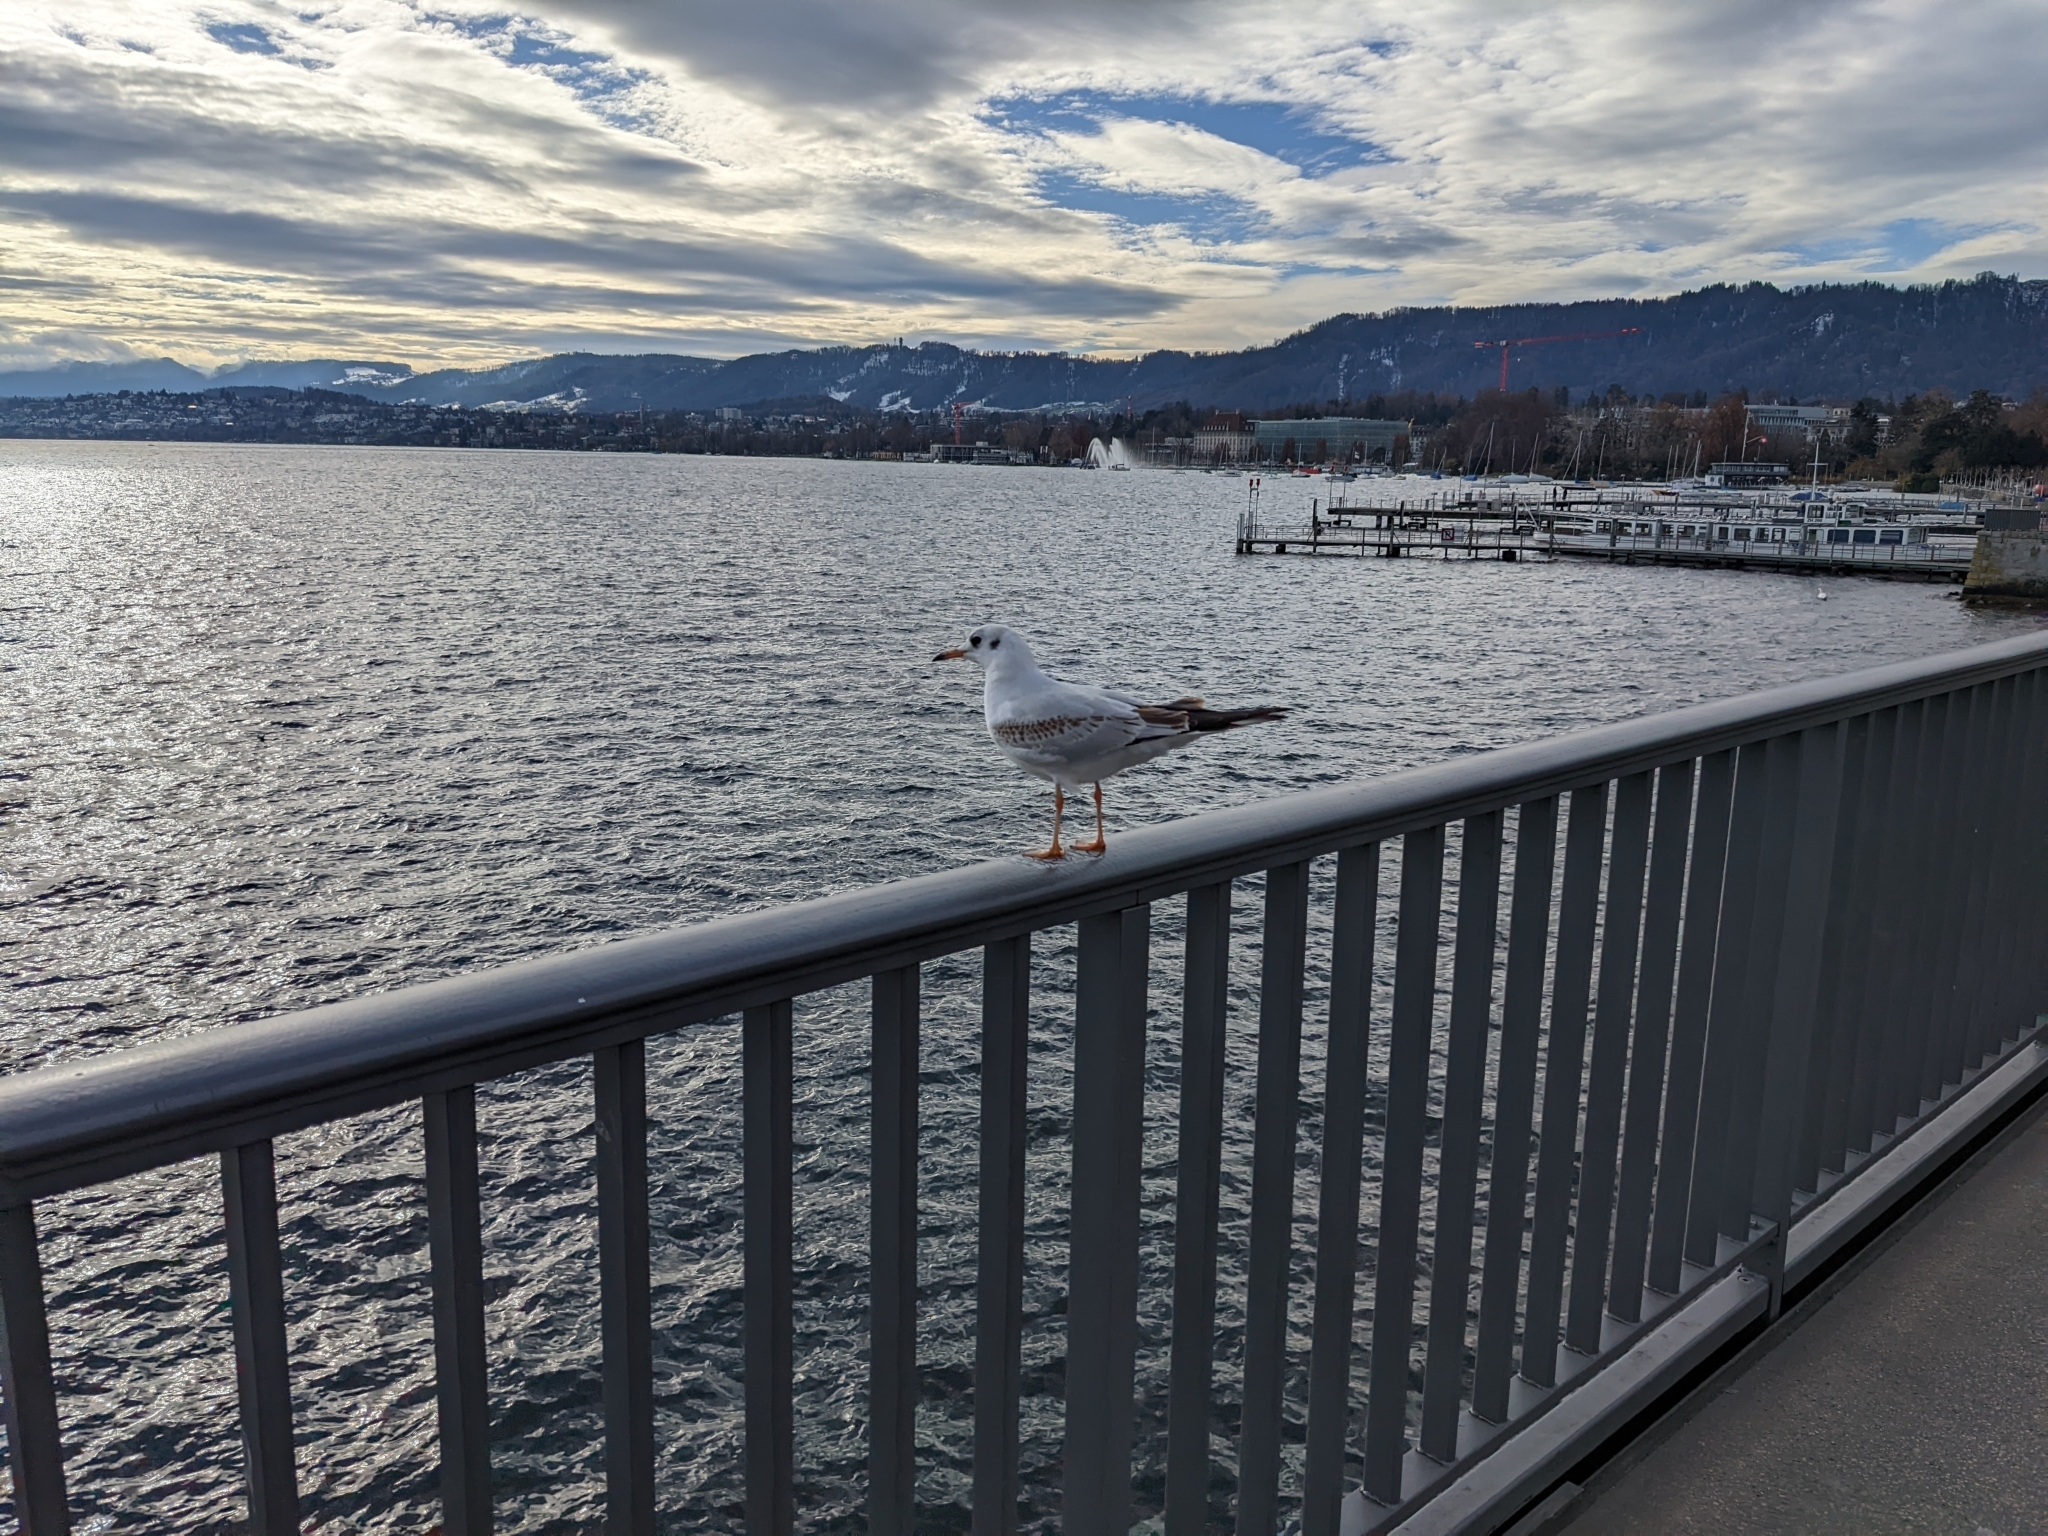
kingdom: Animalia
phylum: Chordata
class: Aves
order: Charadriiformes
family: Laridae
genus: Chroicocephalus
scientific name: Chroicocephalus ridibundus
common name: Black-headed gull
